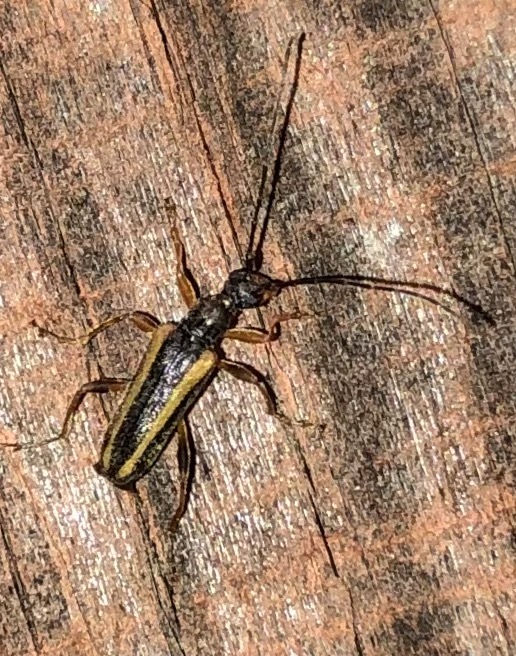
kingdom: Animalia
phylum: Arthropoda
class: Insecta
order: Coleoptera
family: Cerambycidae
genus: Pidonia
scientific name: Pidonia ruficollis
